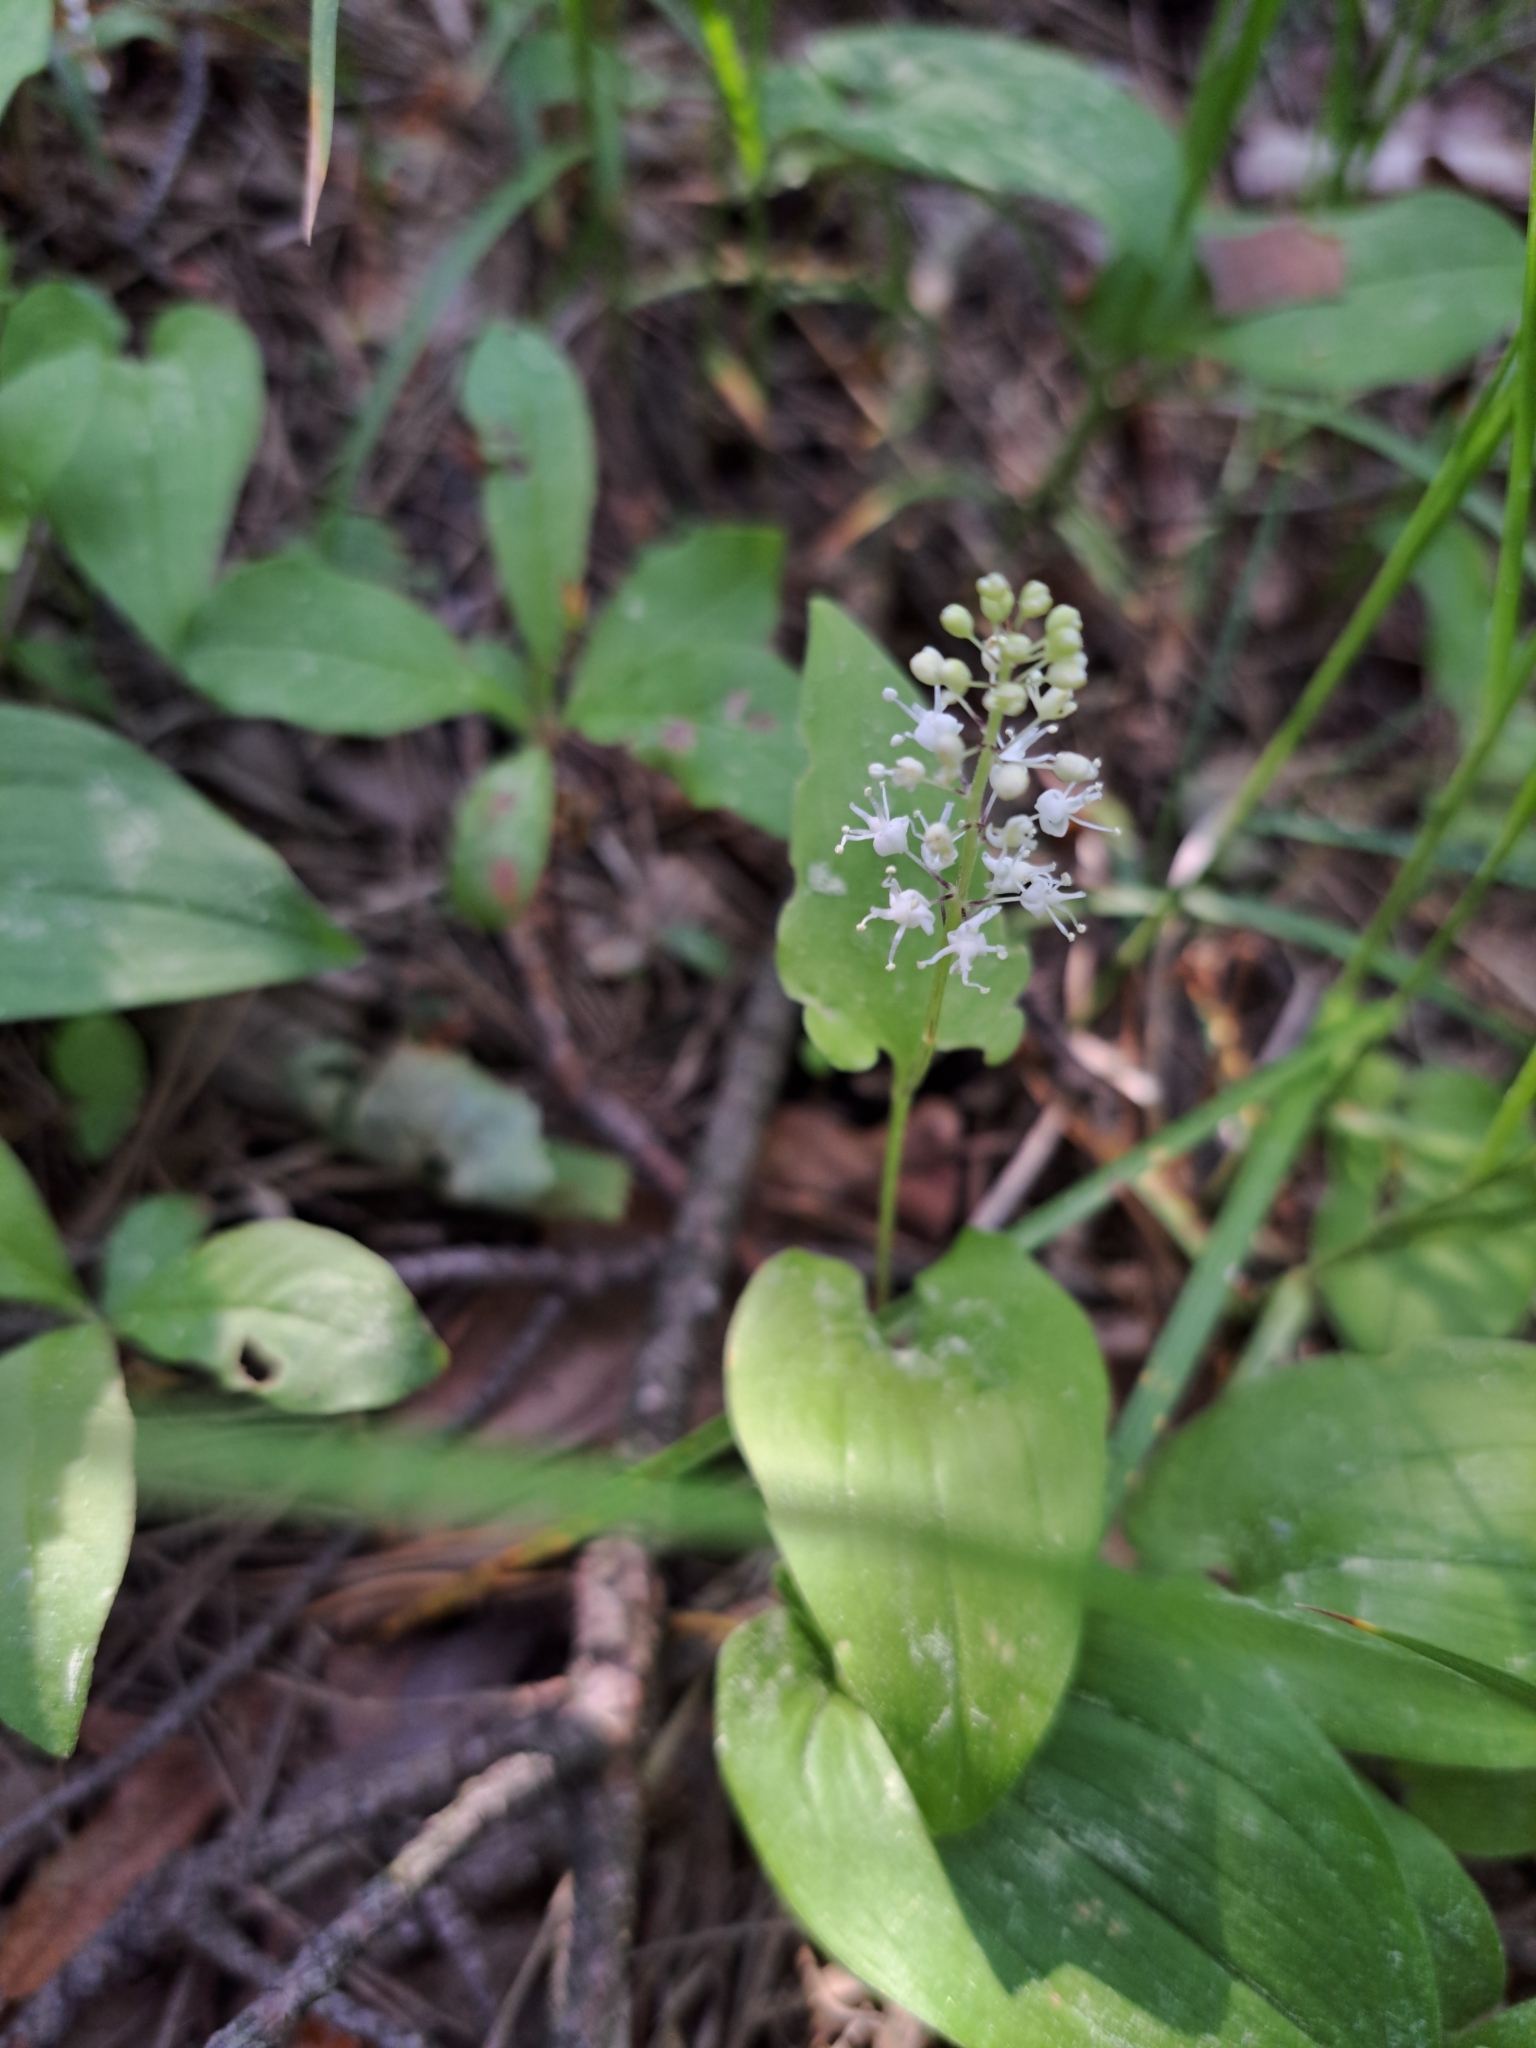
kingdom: Plantae
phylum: Tracheophyta
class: Liliopsida
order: Asparagales
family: Asparagaceae
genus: Maianthemum
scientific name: Maianthemum bifolium
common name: May lily
